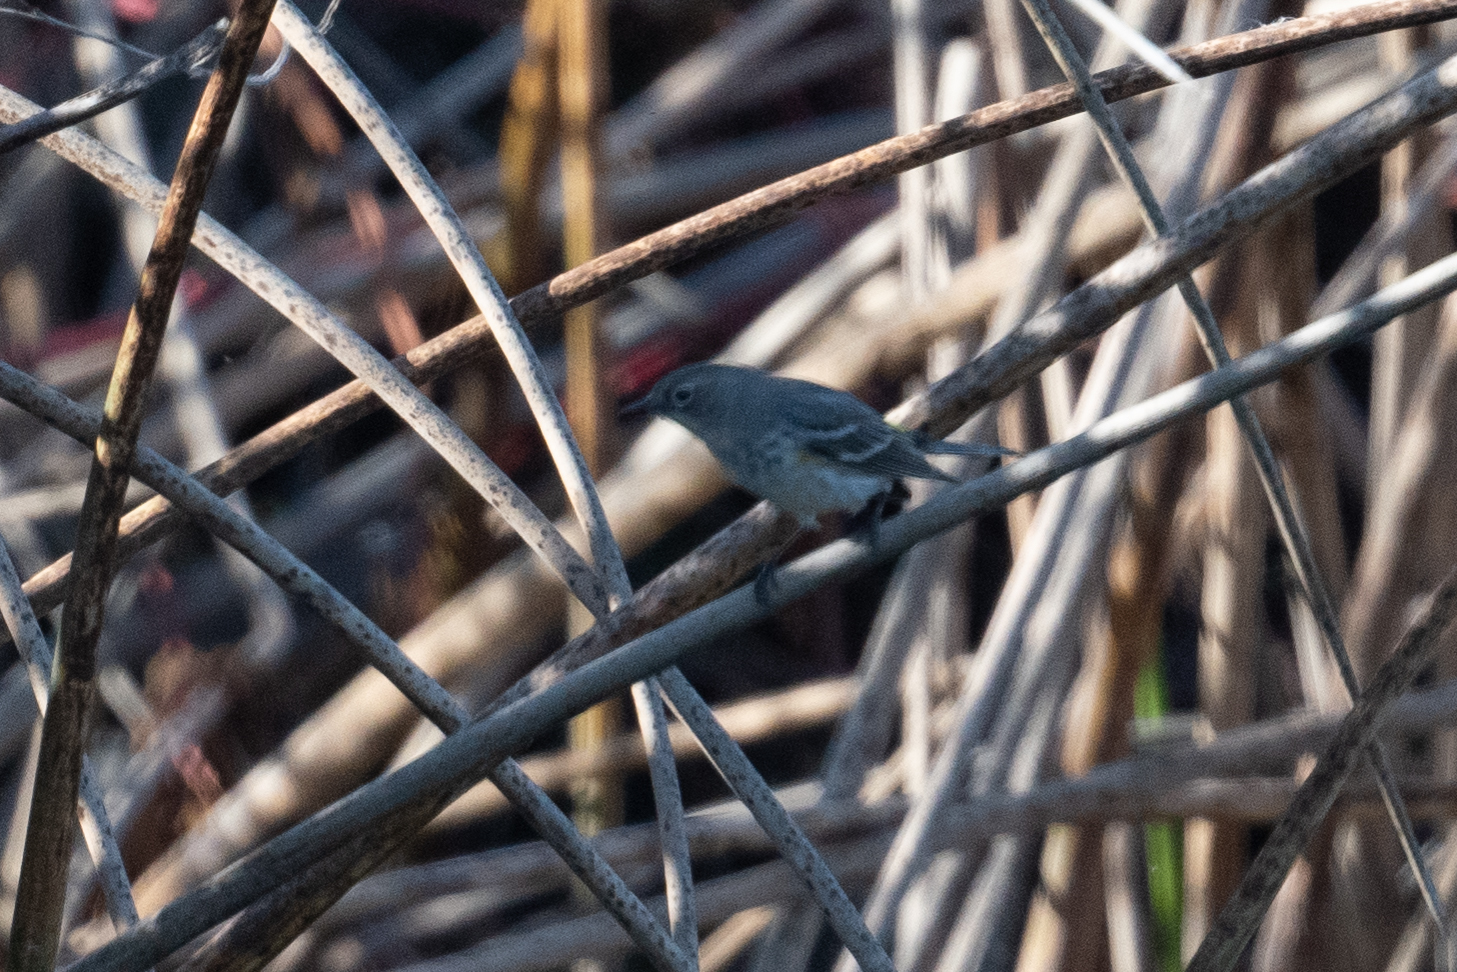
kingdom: Animalia
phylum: Chordata
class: Aves
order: Passeriformes
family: Parulidae
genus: Setophaga
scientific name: Setophaga coronata
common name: Myrtle warbler
